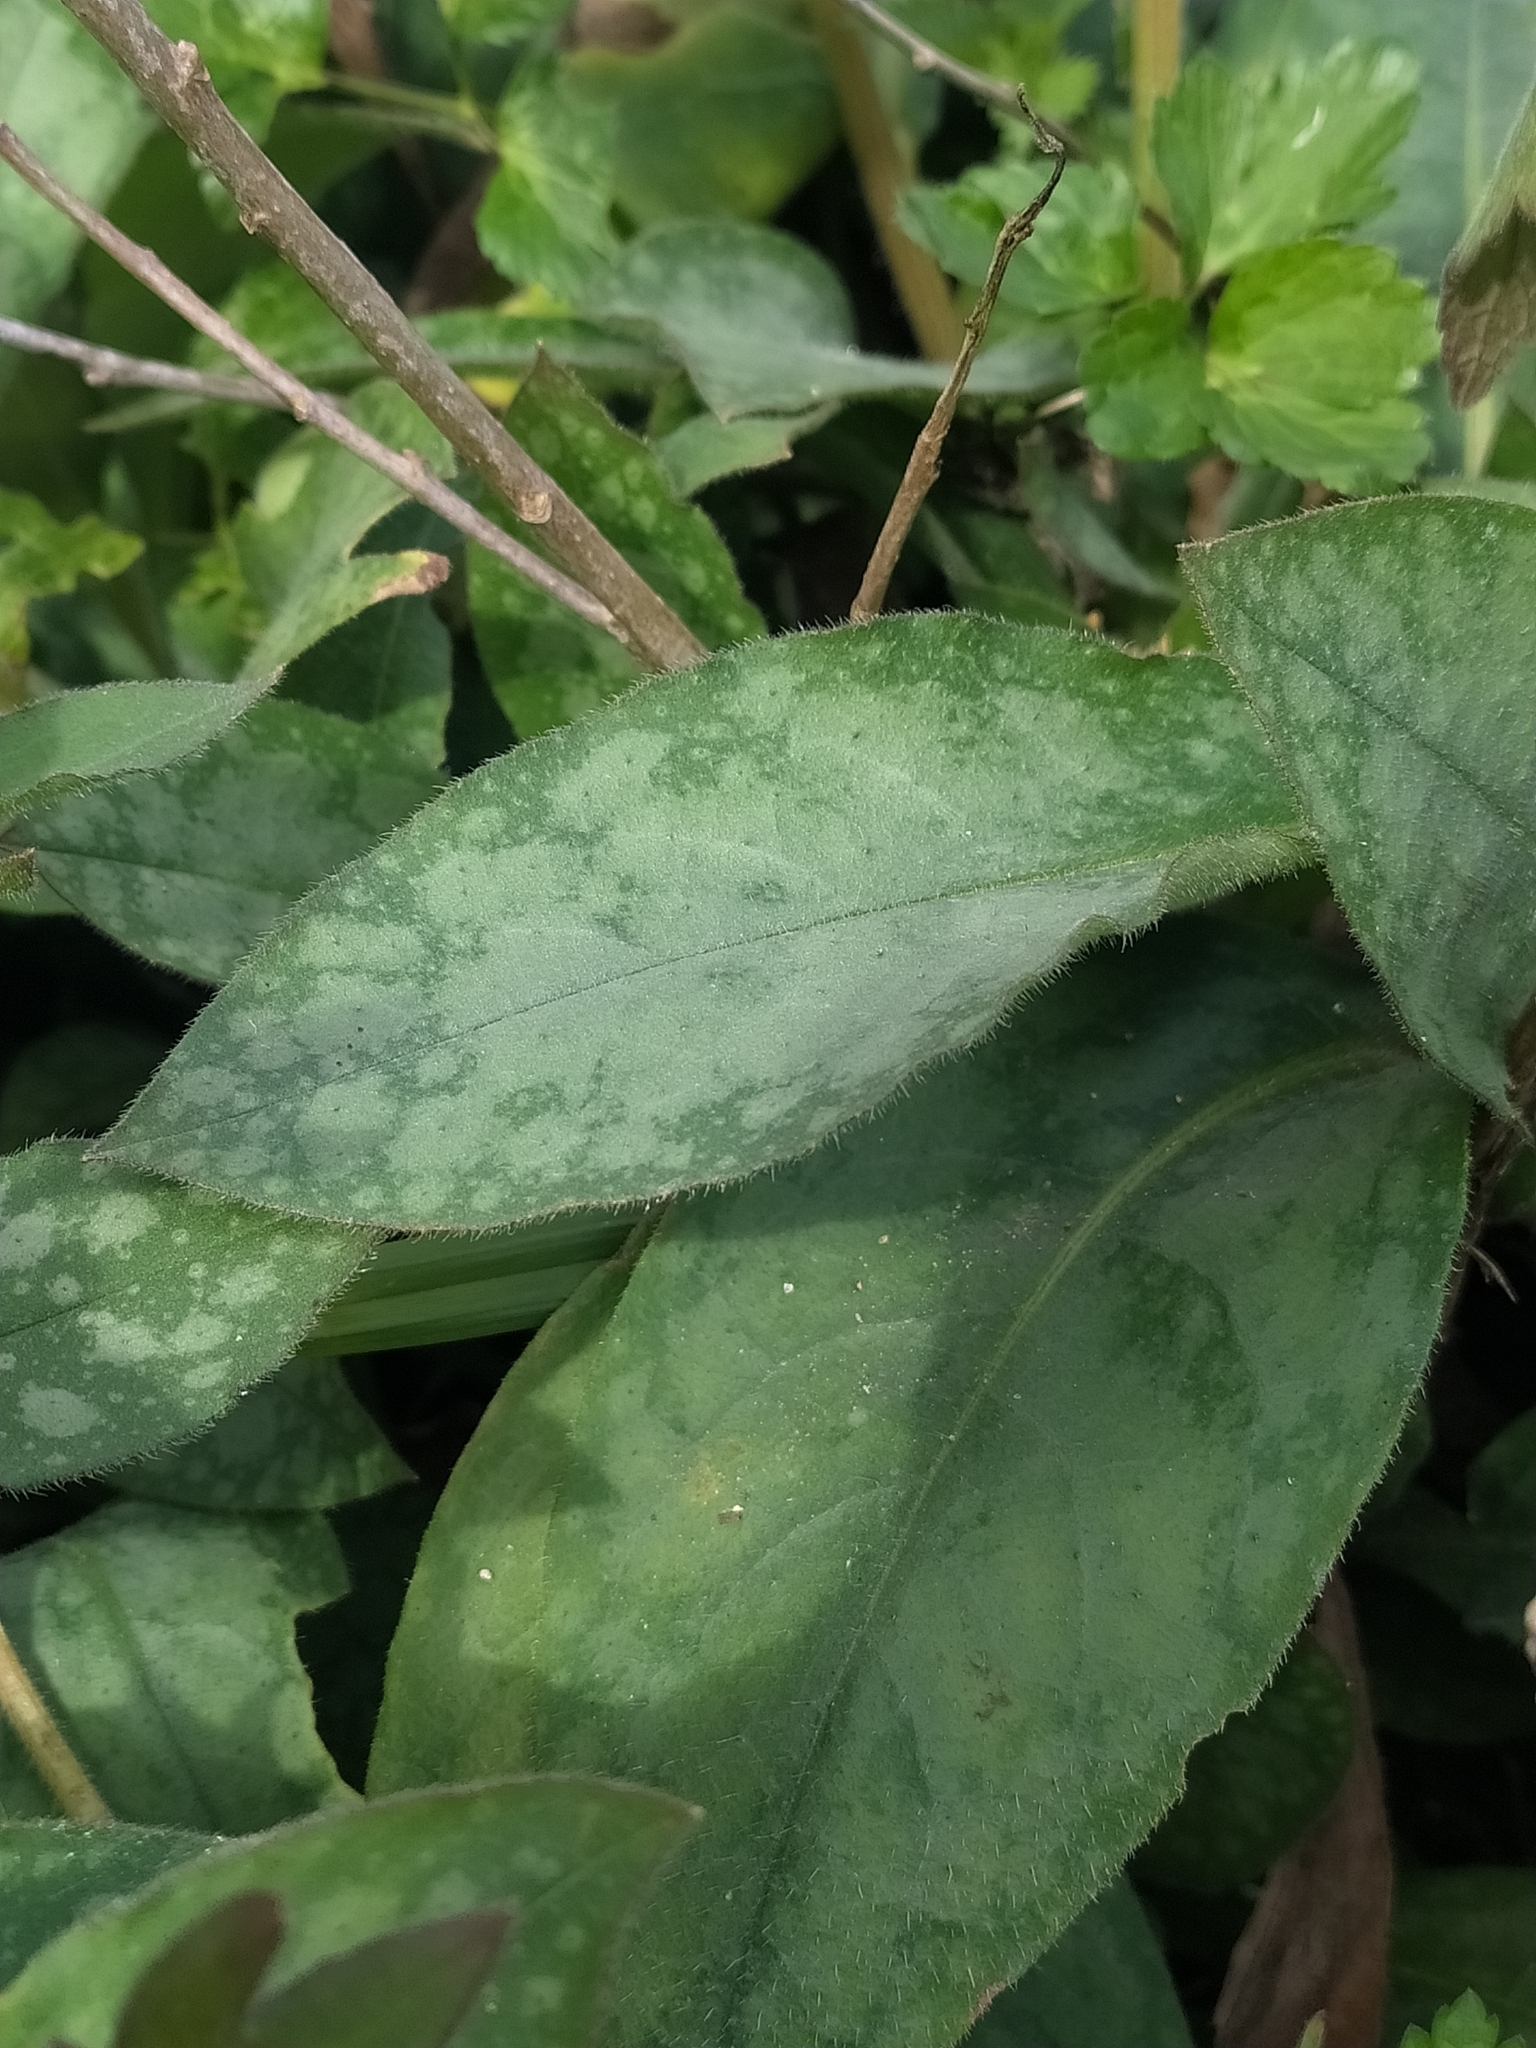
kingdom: Plantae
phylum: Tracheophyta
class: Magnoliopsida
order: Boraginales
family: Boraginaceae
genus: Pulmonaria
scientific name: Pulmonaria hirta
